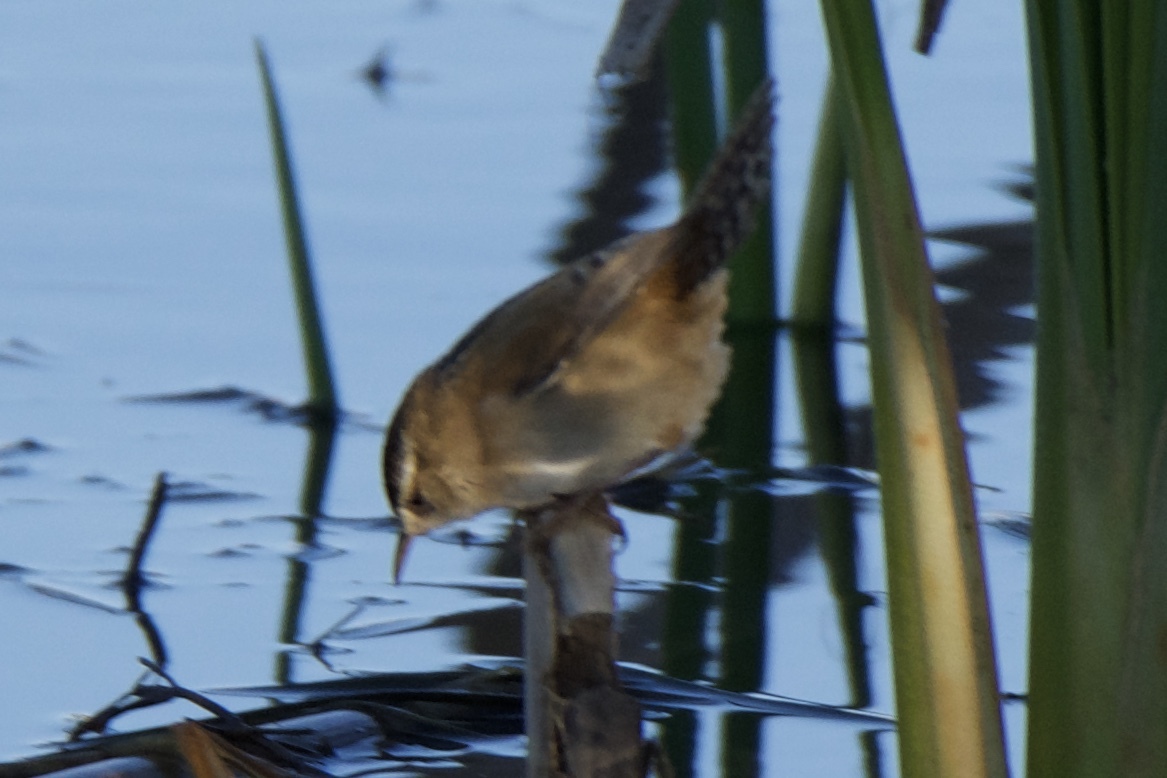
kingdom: Animalia
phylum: Chordata
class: Aves
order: Passeriformes
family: Troglodytidae
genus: Cistothorus
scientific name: Cistothorus palustris
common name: Marsh wren
